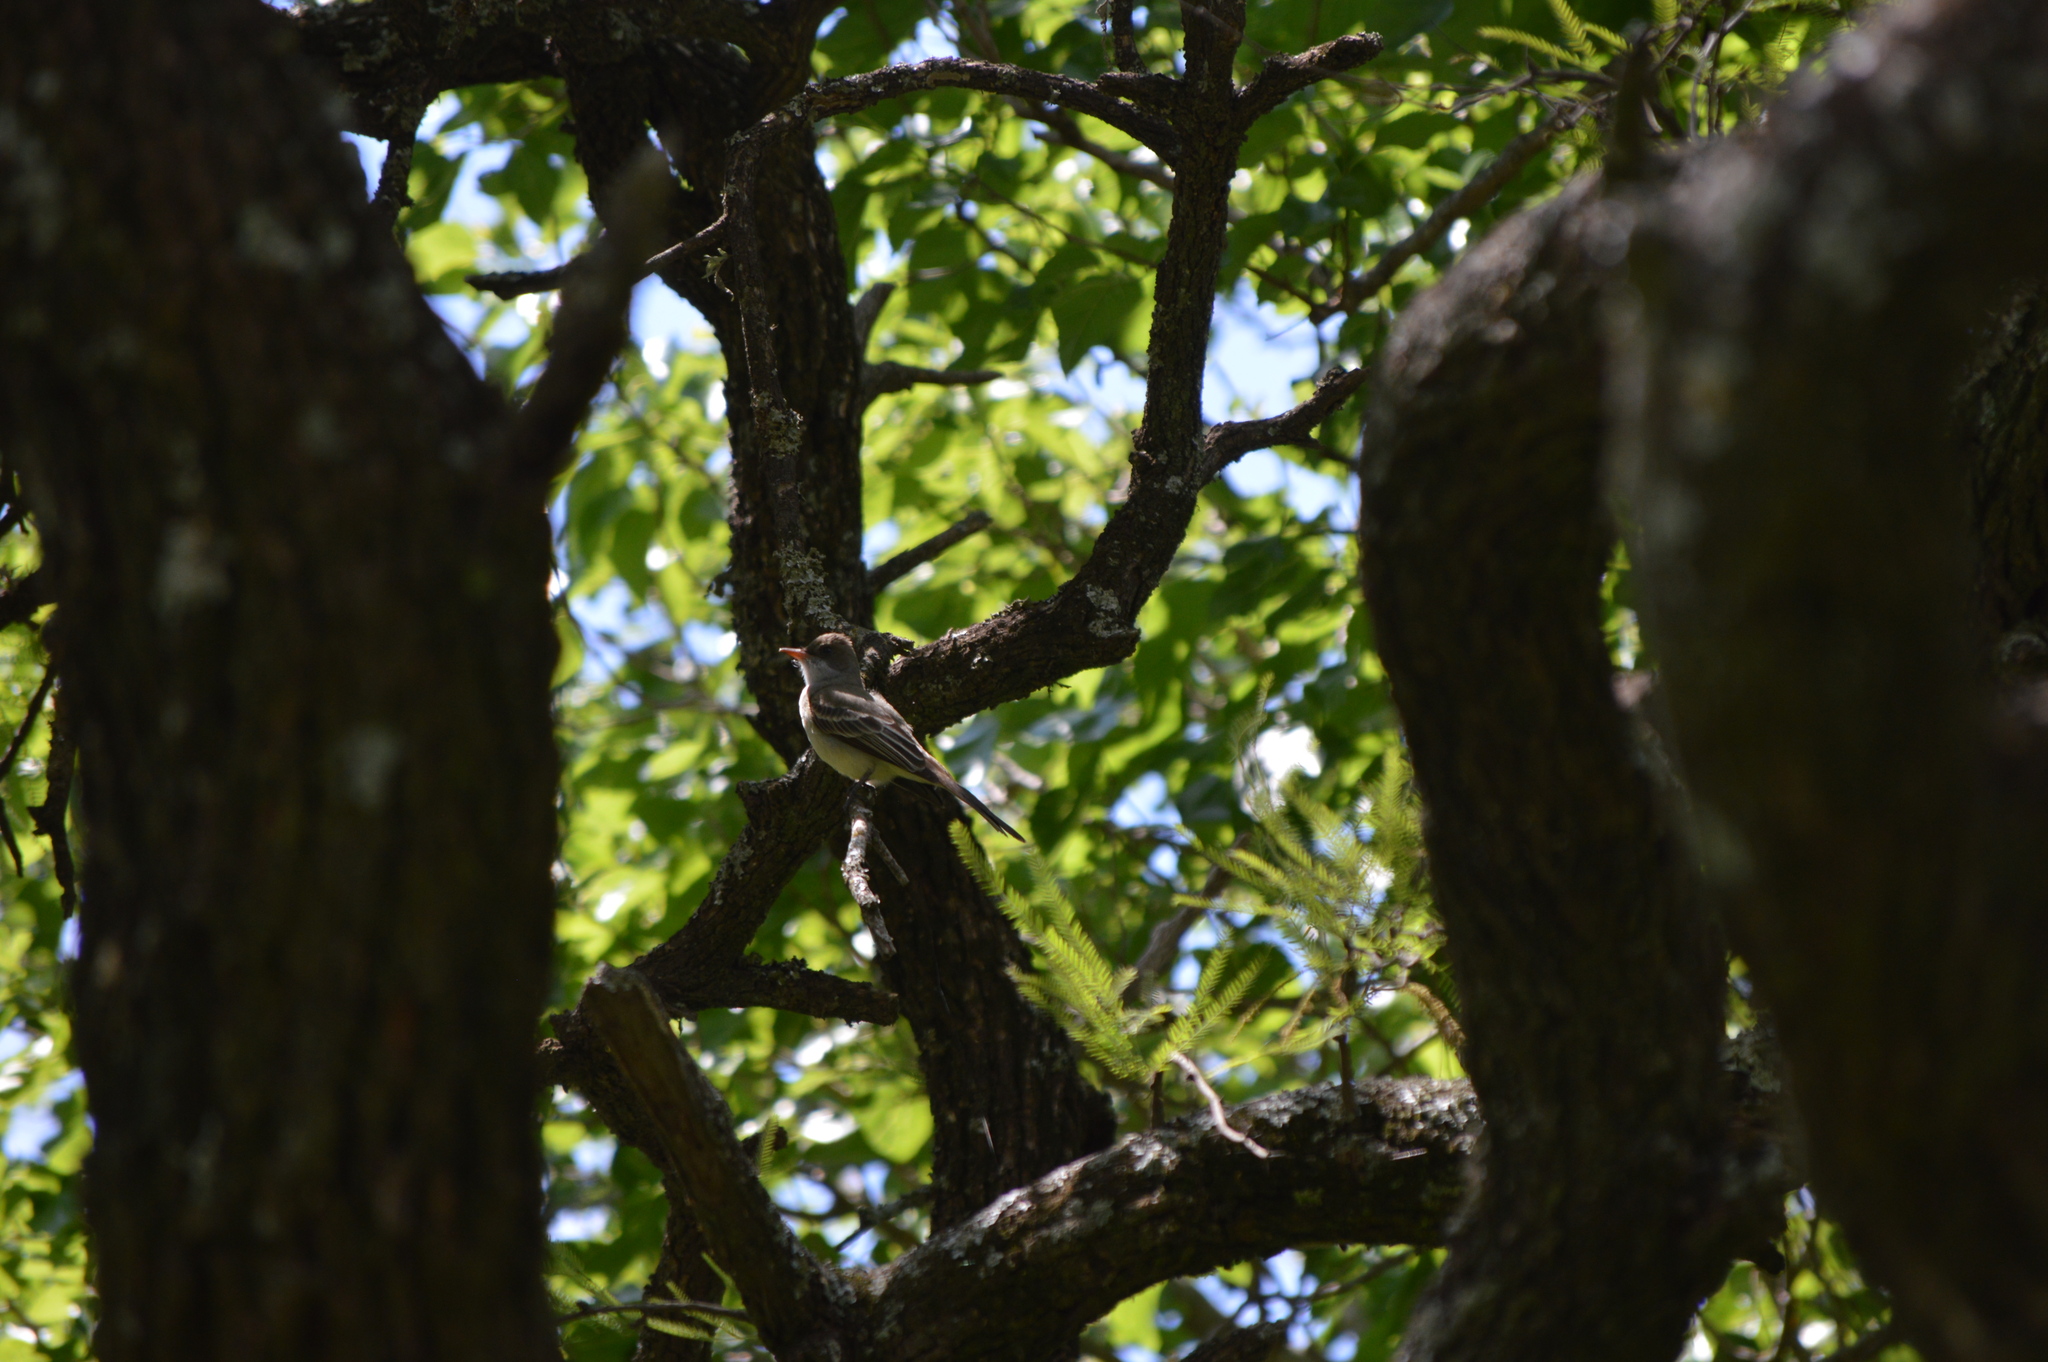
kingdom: Animalia
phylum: Chordata
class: Aves
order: Passeriformes
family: Tyrannidae
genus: Myiarchus
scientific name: Myiarchus swainsoni
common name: Swainson's flycatcher
